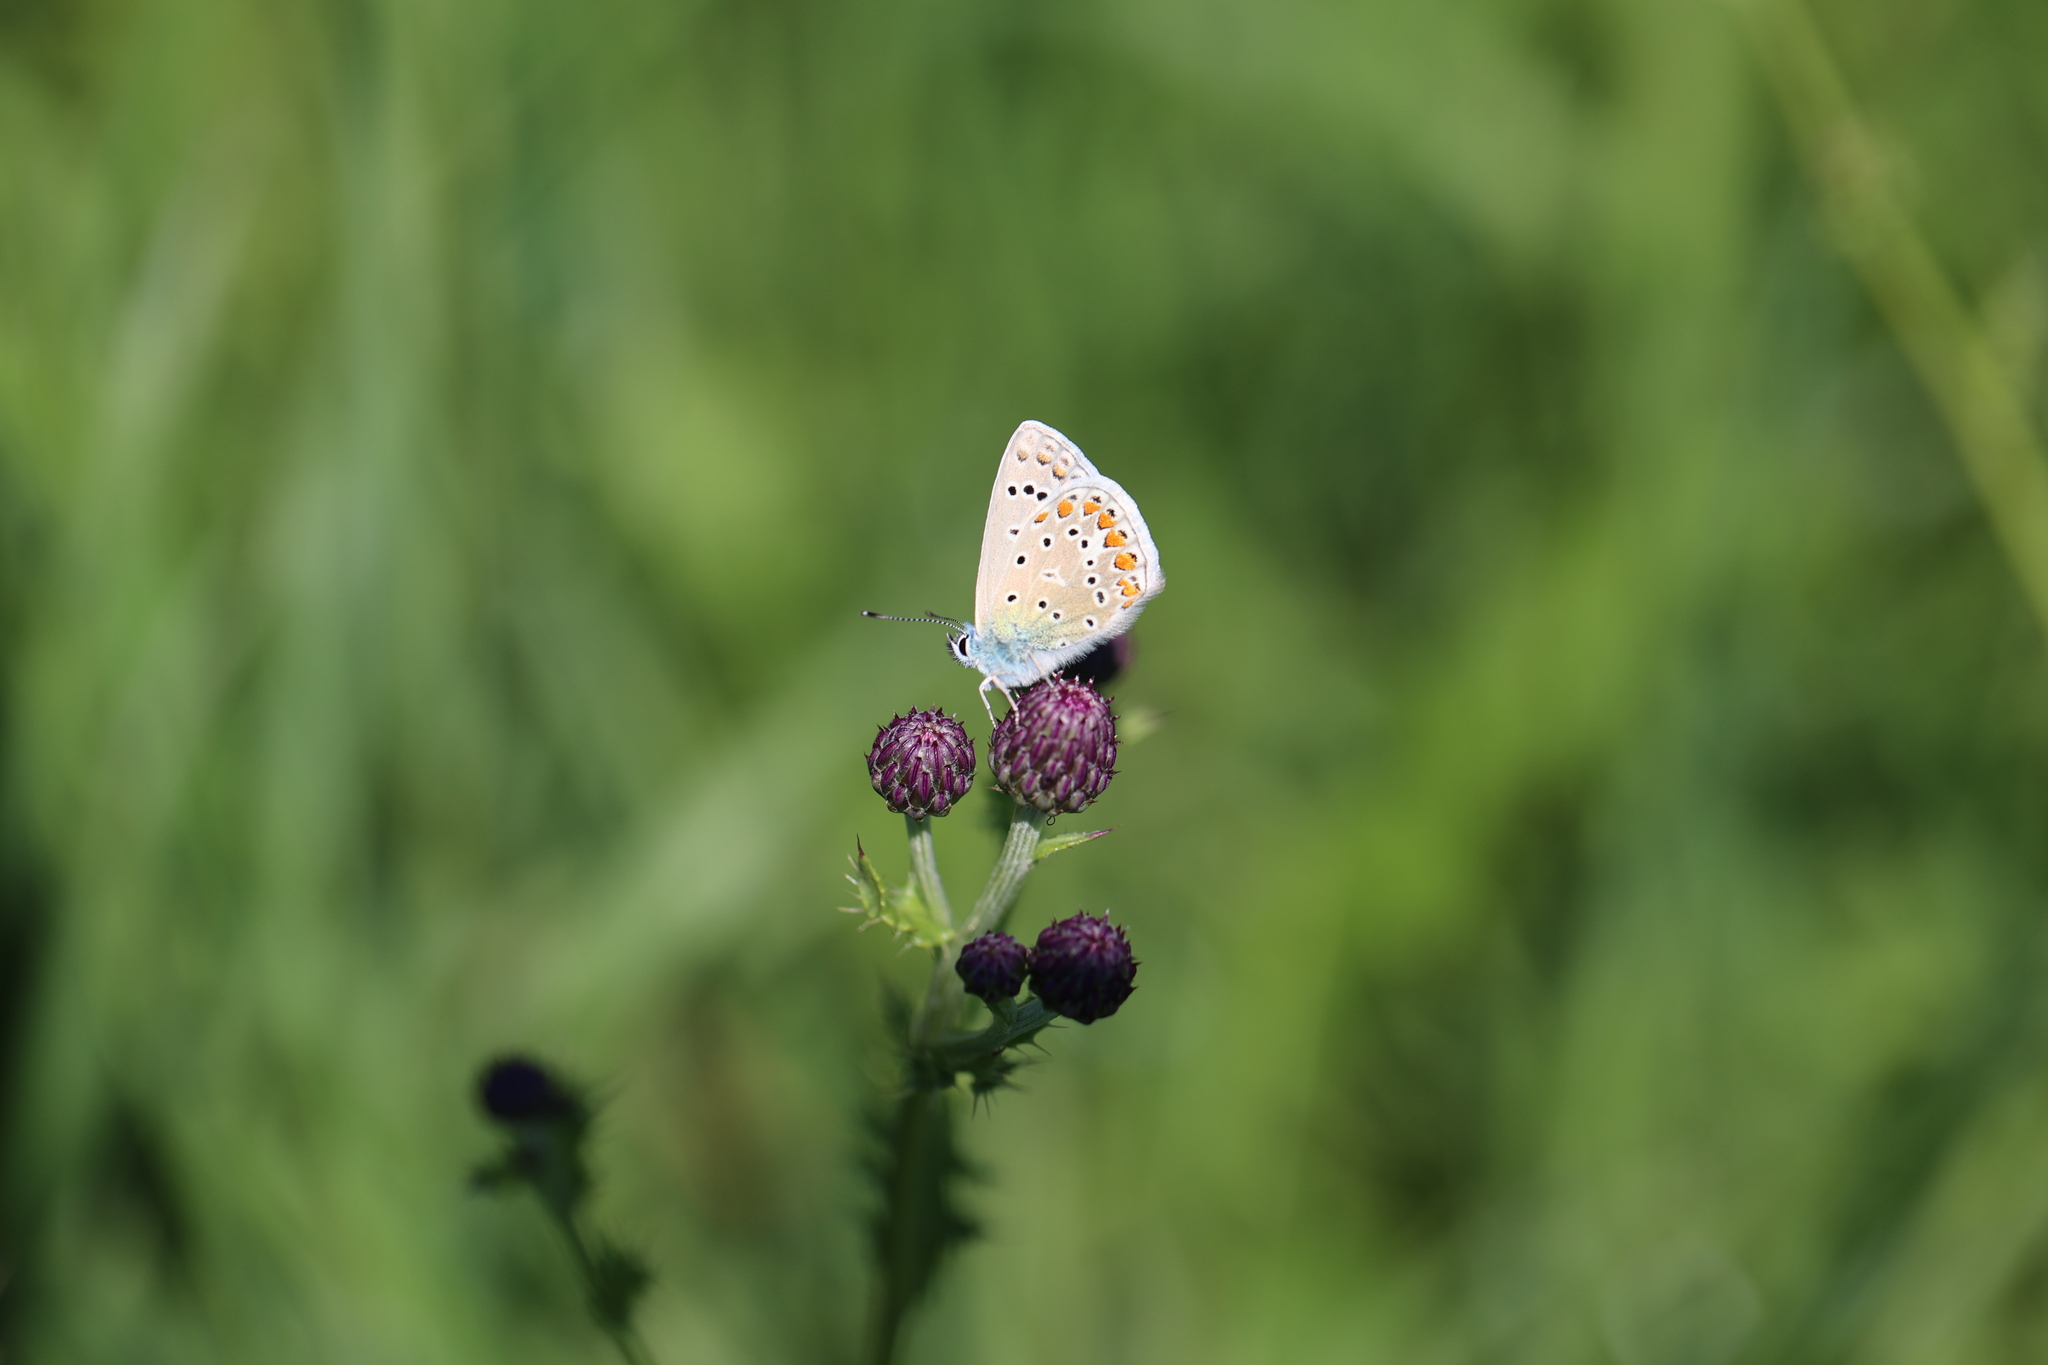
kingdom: Animalia
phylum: Arthropoda
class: Insecta
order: Lepidoptera
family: Lycaenidae
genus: Polyommatus
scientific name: Polyommatus icarus
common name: Common blue
